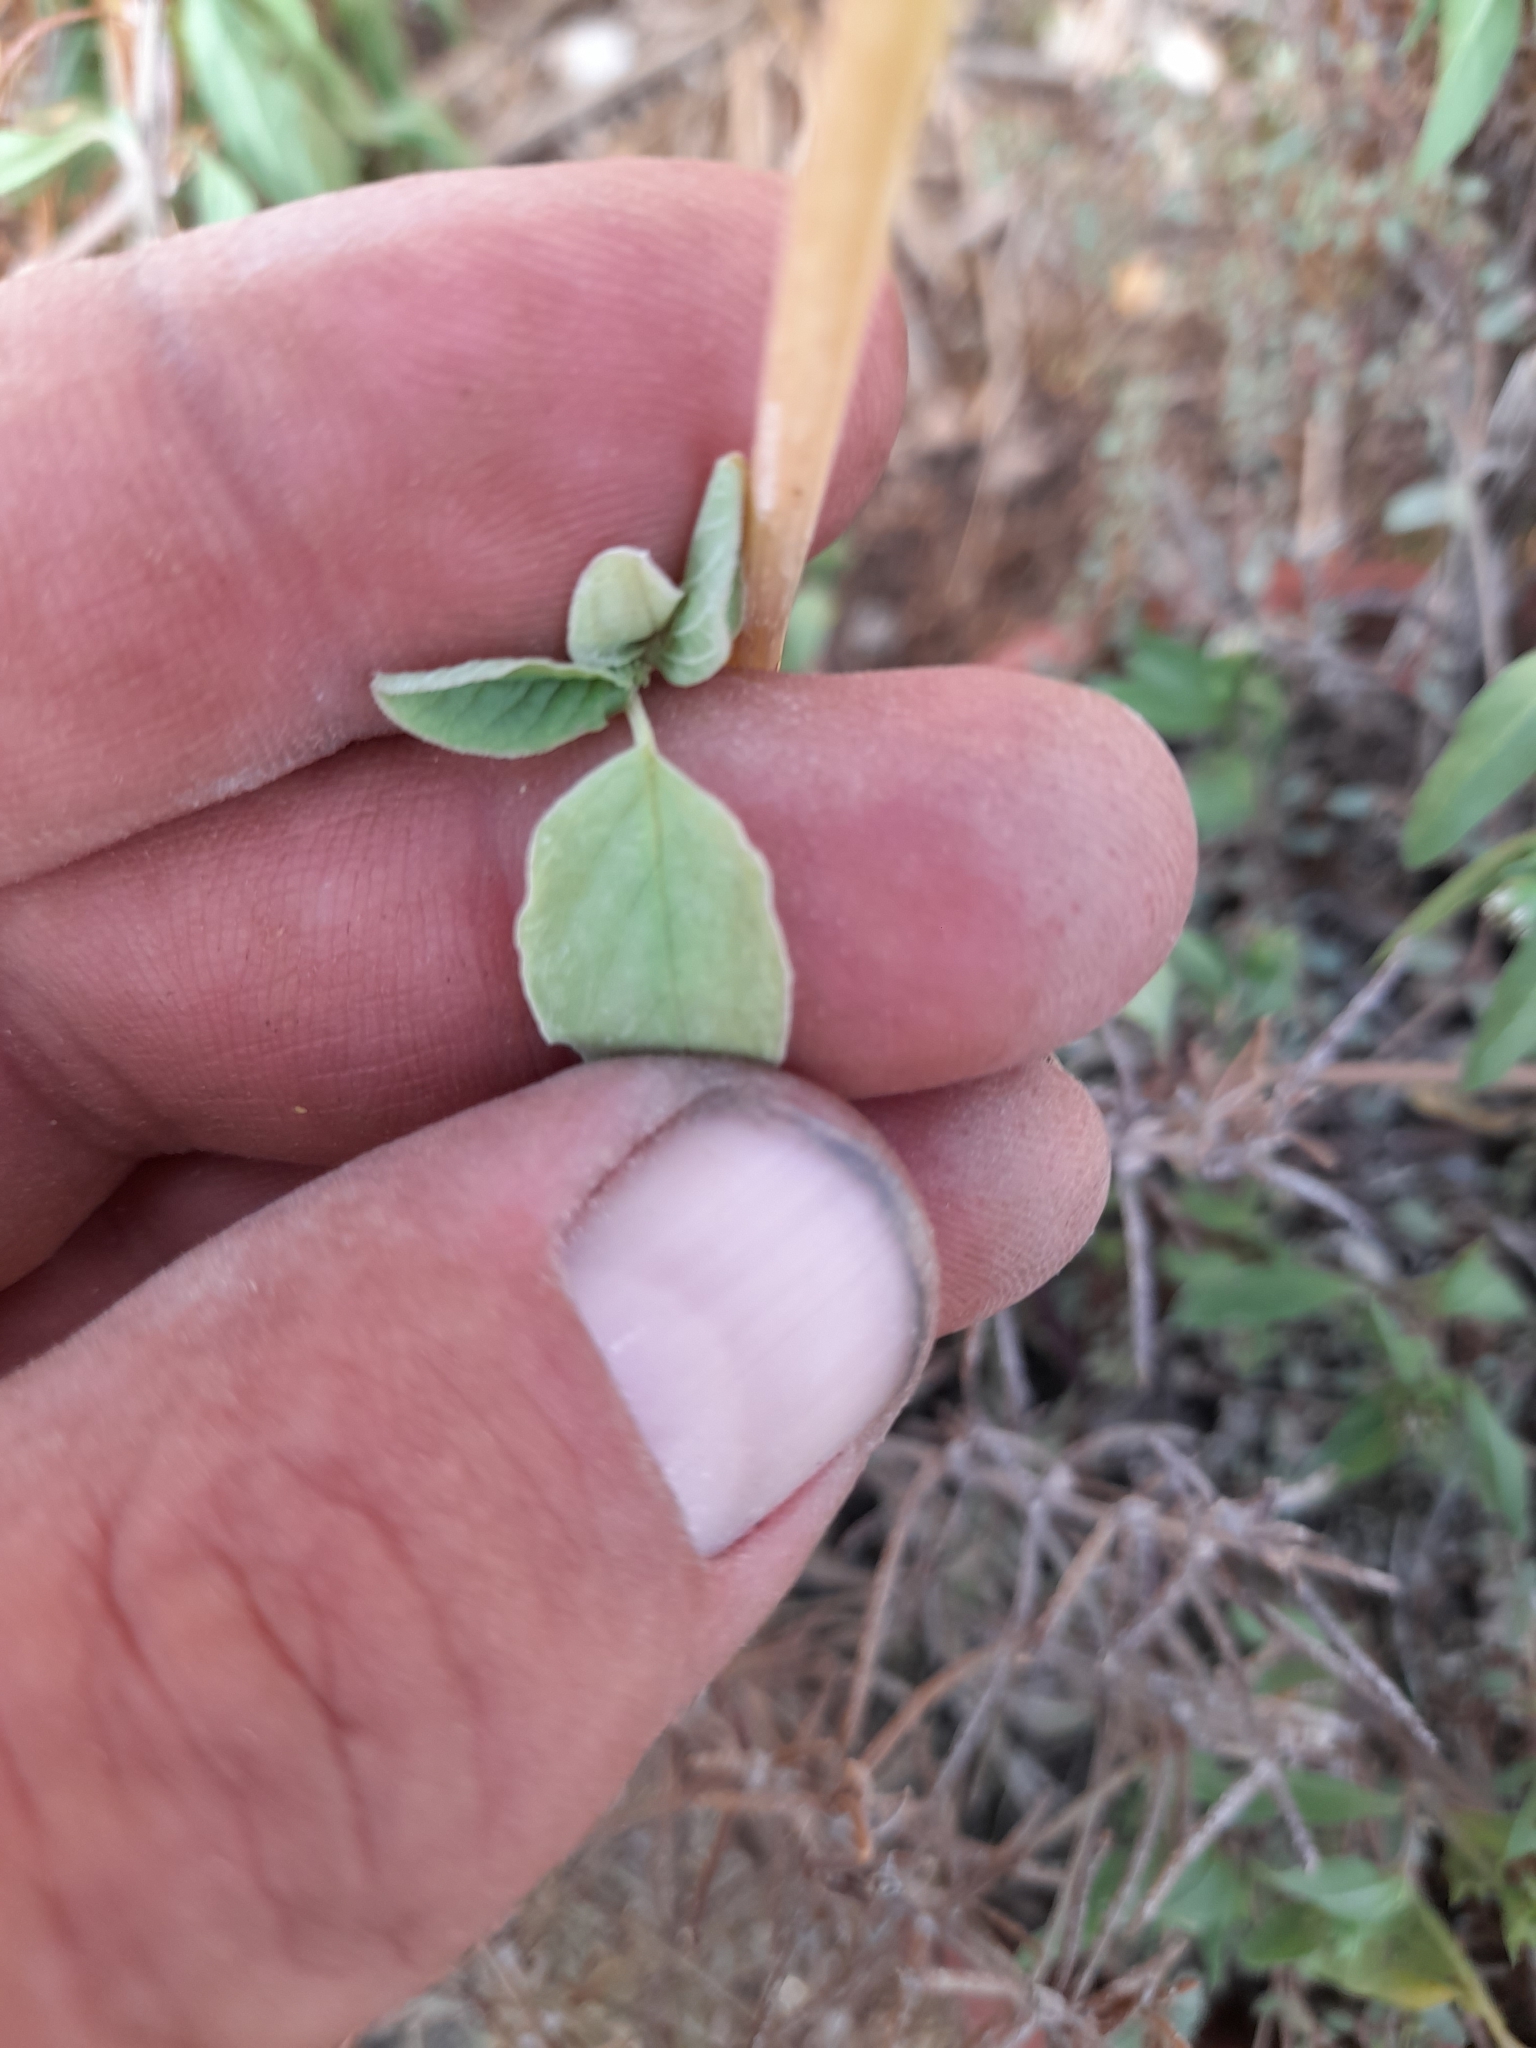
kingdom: Plantae
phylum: Tracheophyta
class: Magnoliopsida
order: Caryophyllales
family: Amaranthaceae
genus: Amaranthus
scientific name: Amaranthus viridis
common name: Slender amaranth
